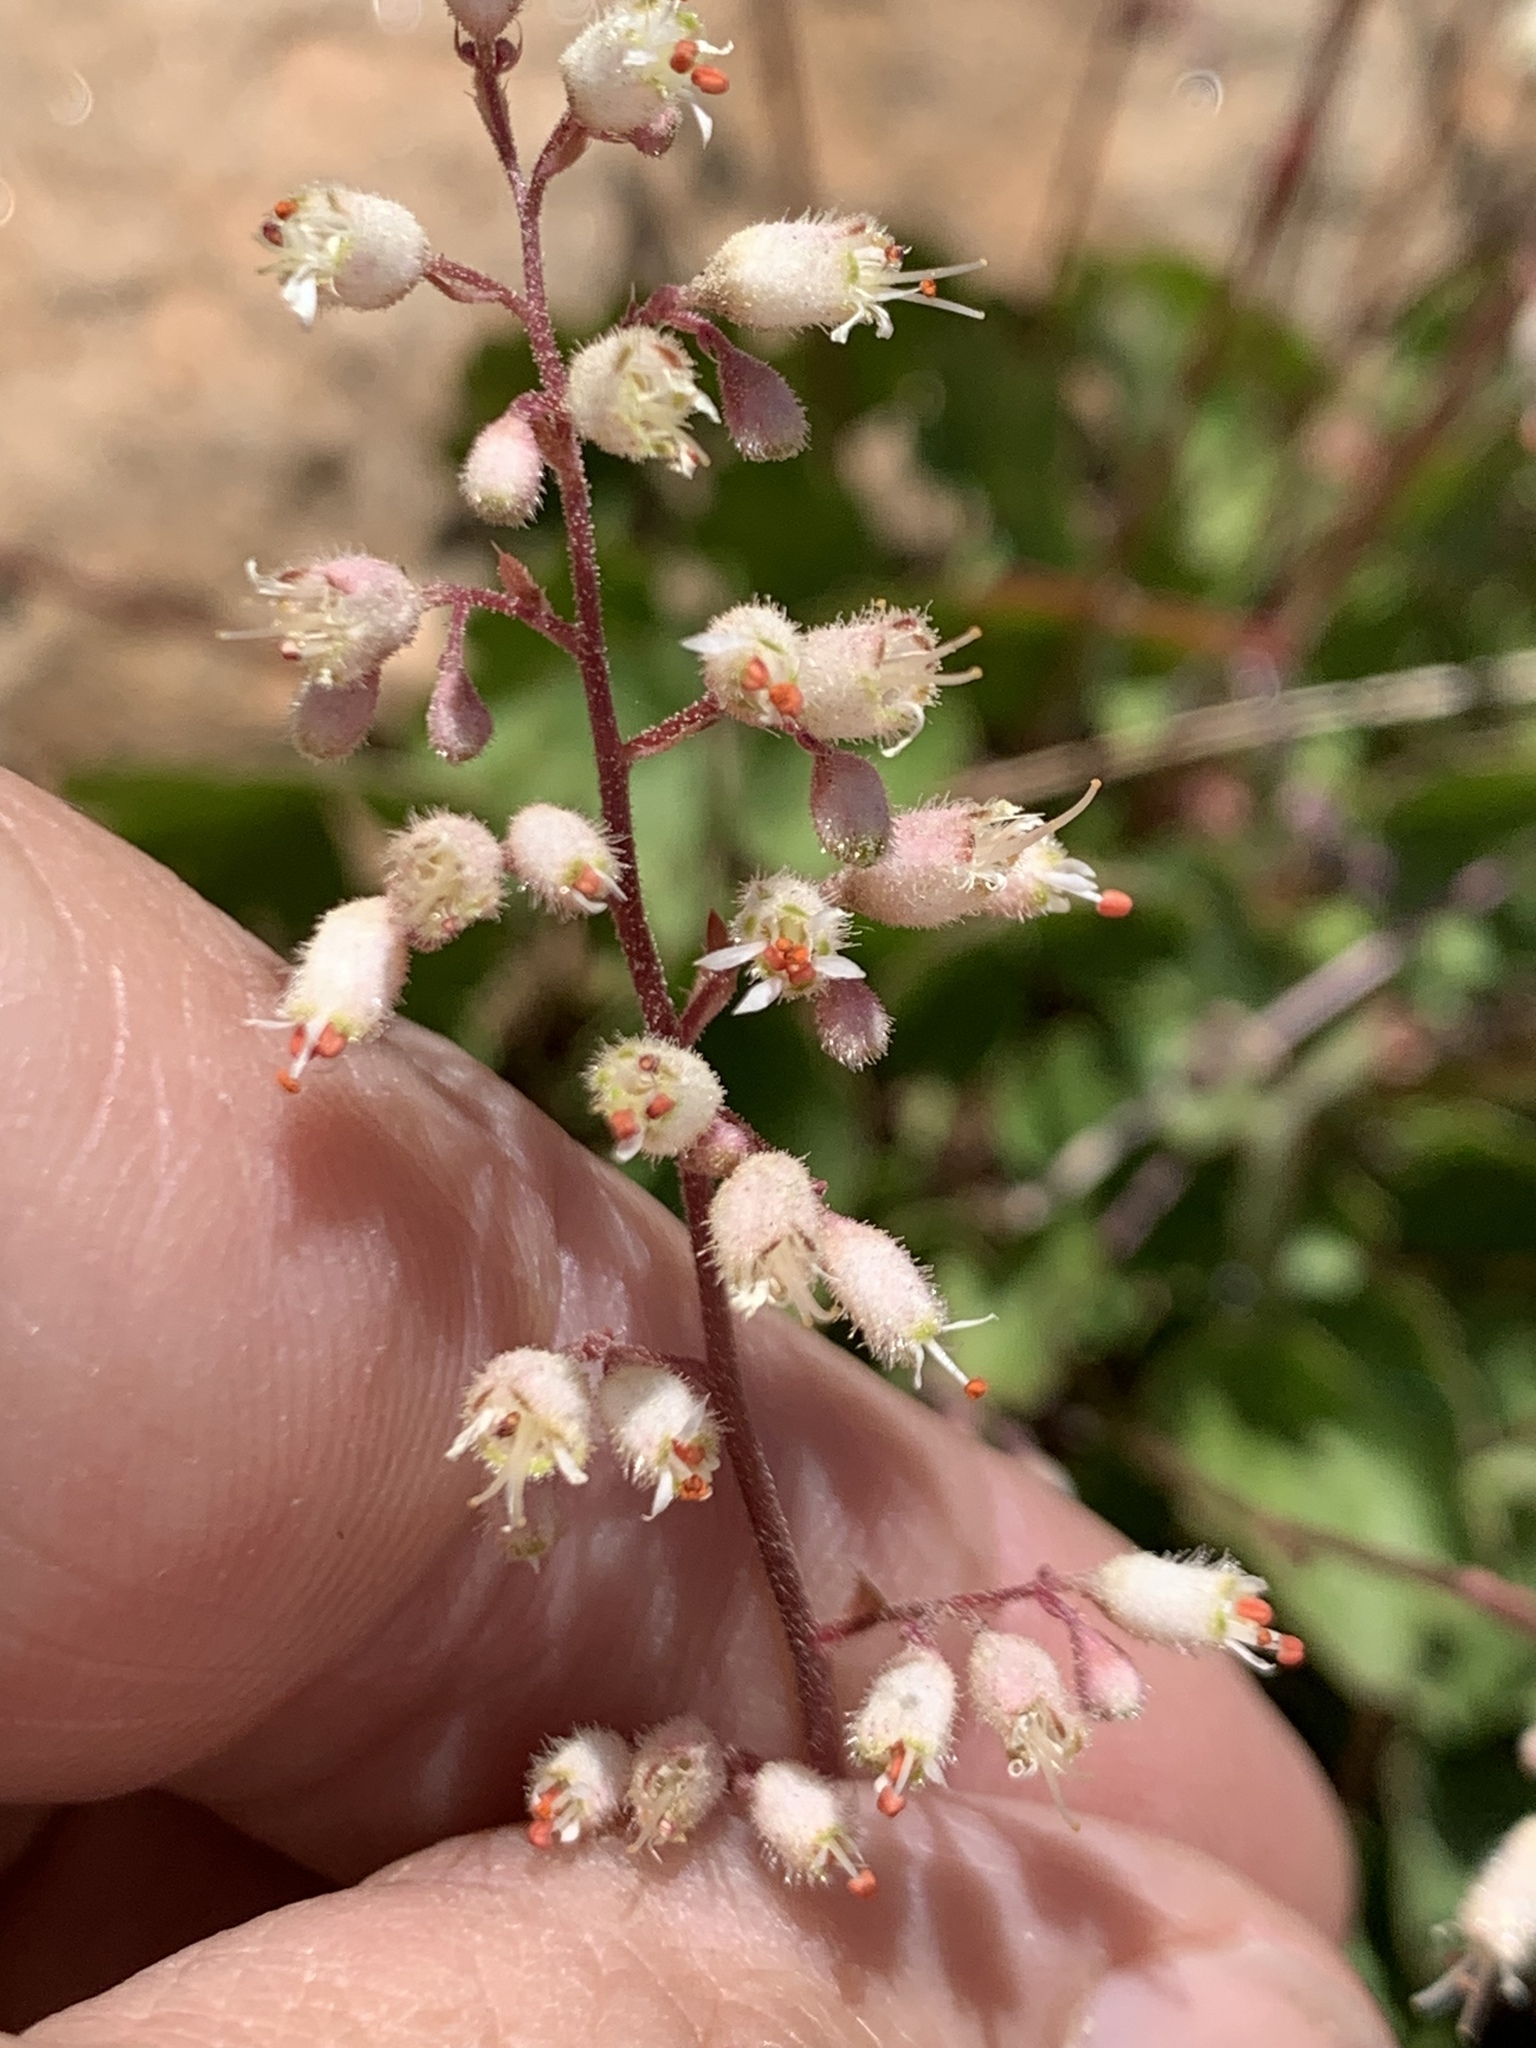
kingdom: Plantae
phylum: Tracheophyta
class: Magnoliopsida
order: Saxifragales
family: Saxifragaceae
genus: Heuchera
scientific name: Heuchera rubescens
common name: Jack-o'the-rocks
